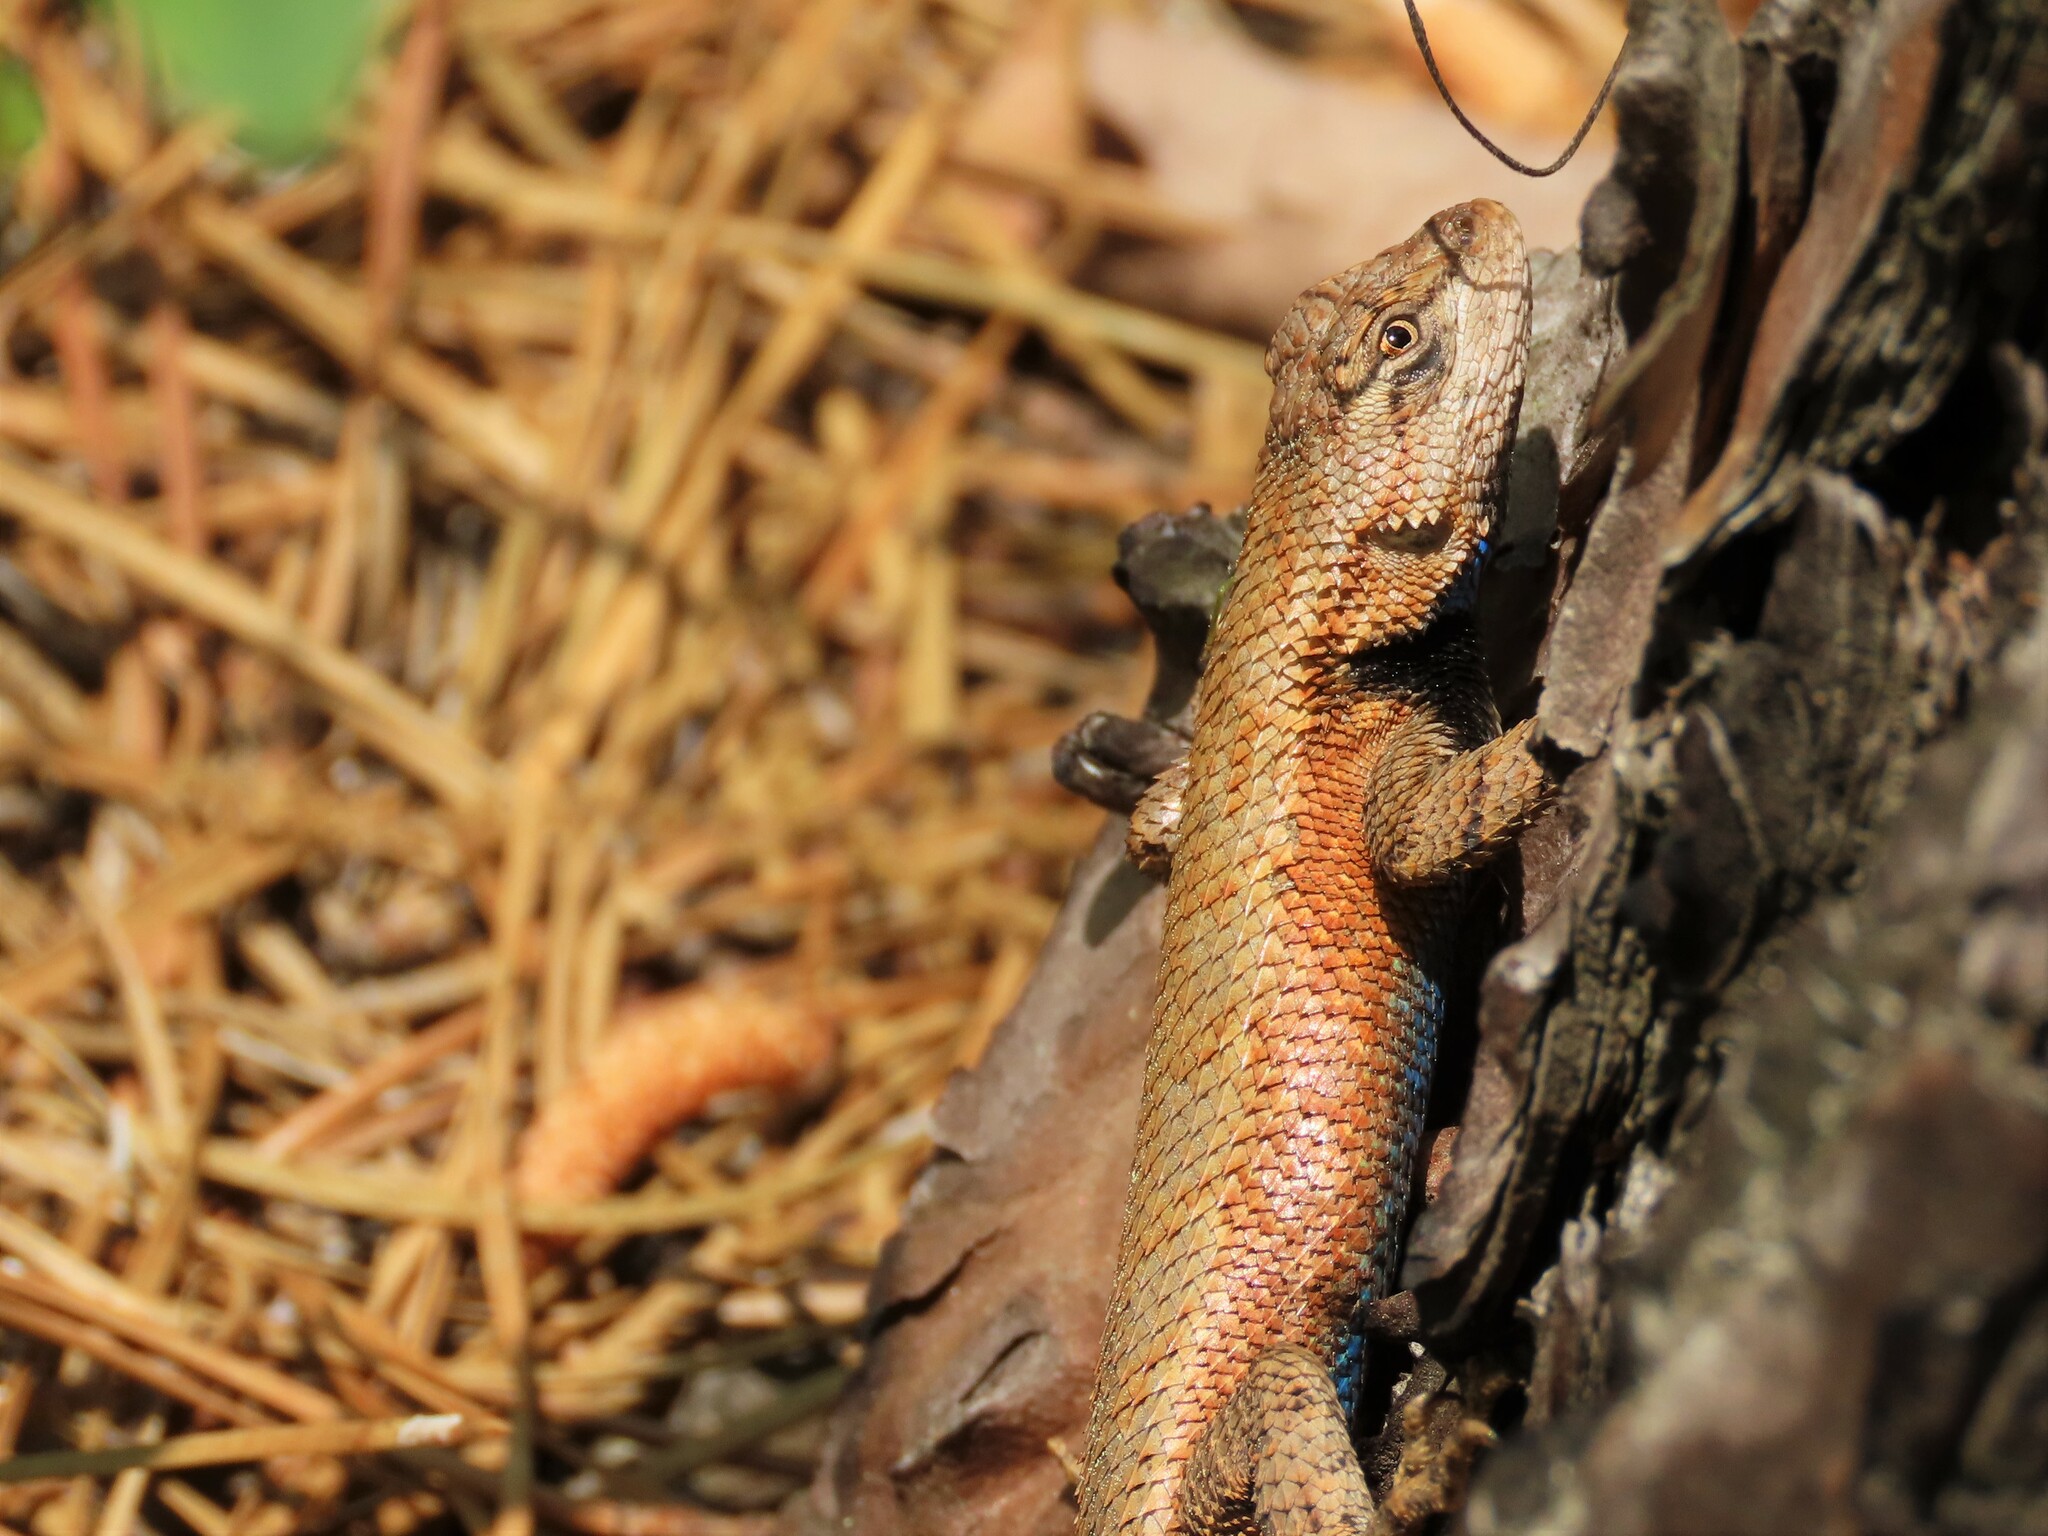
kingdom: Animalia
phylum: Chordata
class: Squamata
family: Phrynosomatidae
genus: Sceloporus
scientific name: Sceloporus undulatus
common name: Eastern fence lizard
